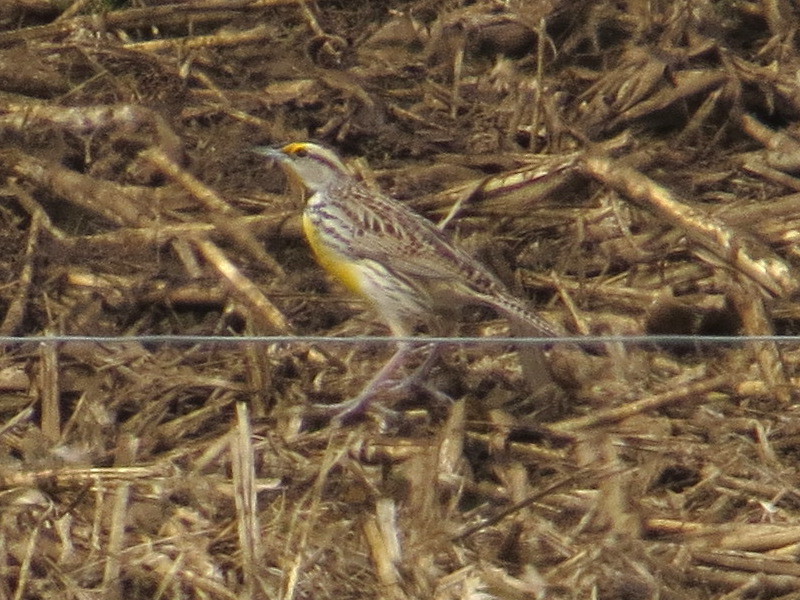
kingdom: Animalia
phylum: Chordata
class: Aves
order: Passeriformes
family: Icteridae
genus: Sturnella
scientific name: Sturnella magna
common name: Eastern meadowlark
